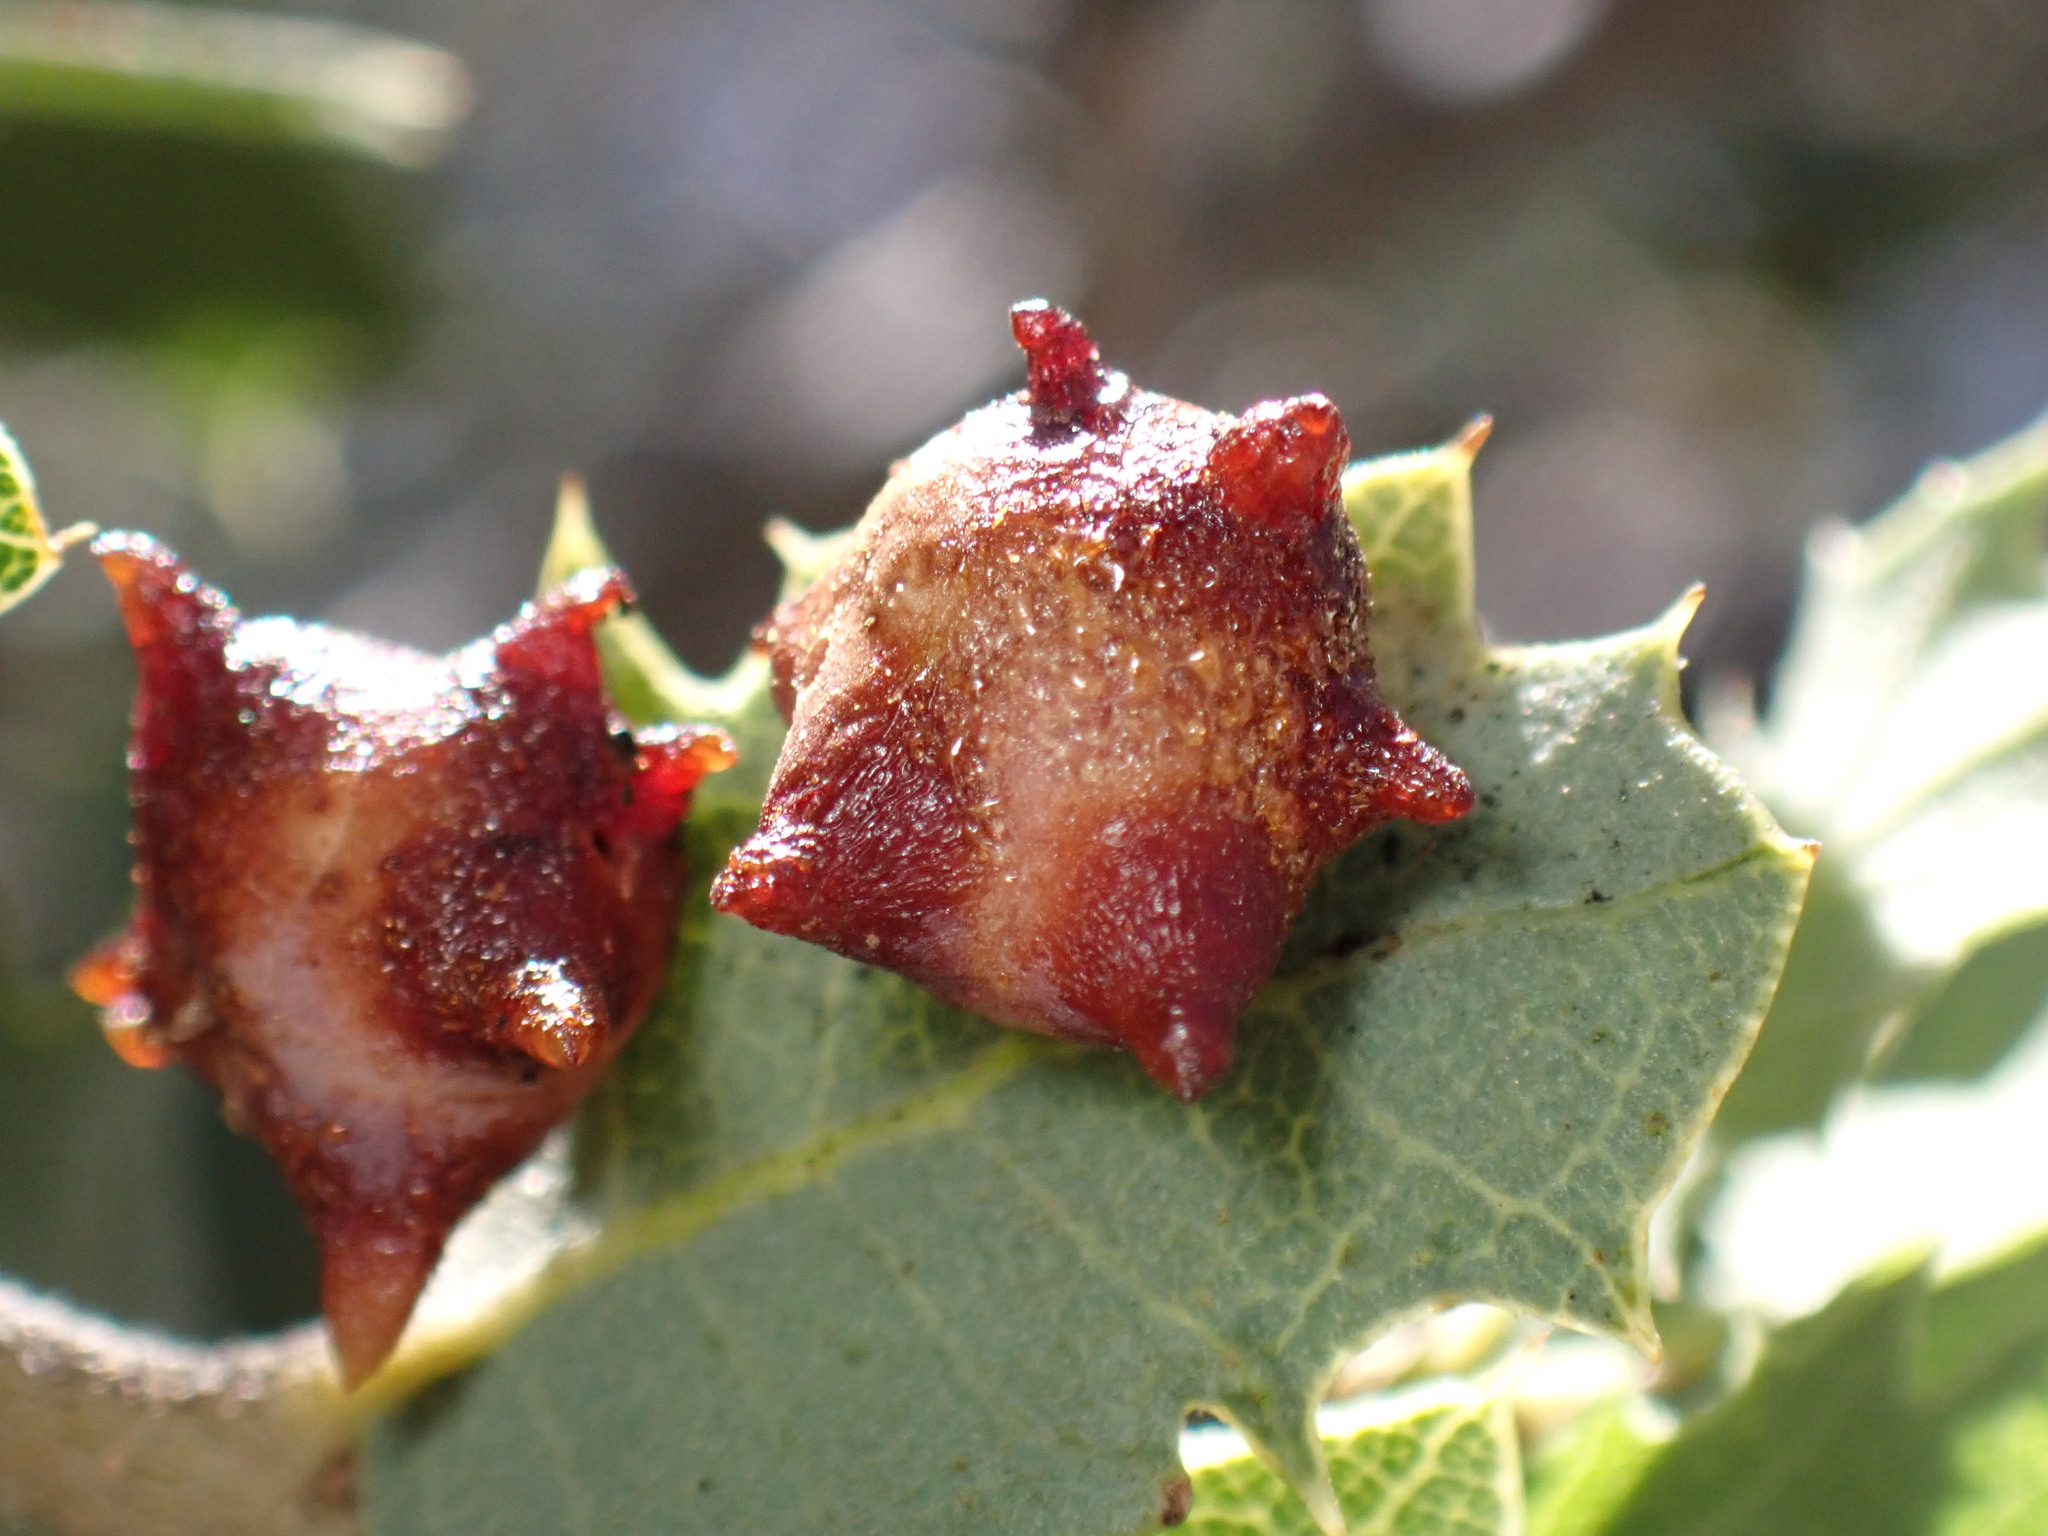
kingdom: Animalia
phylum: Arthropoda
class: Insecta
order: Hymenoptera
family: Cynipidae
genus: Cynips
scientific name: Cynips douglasi
